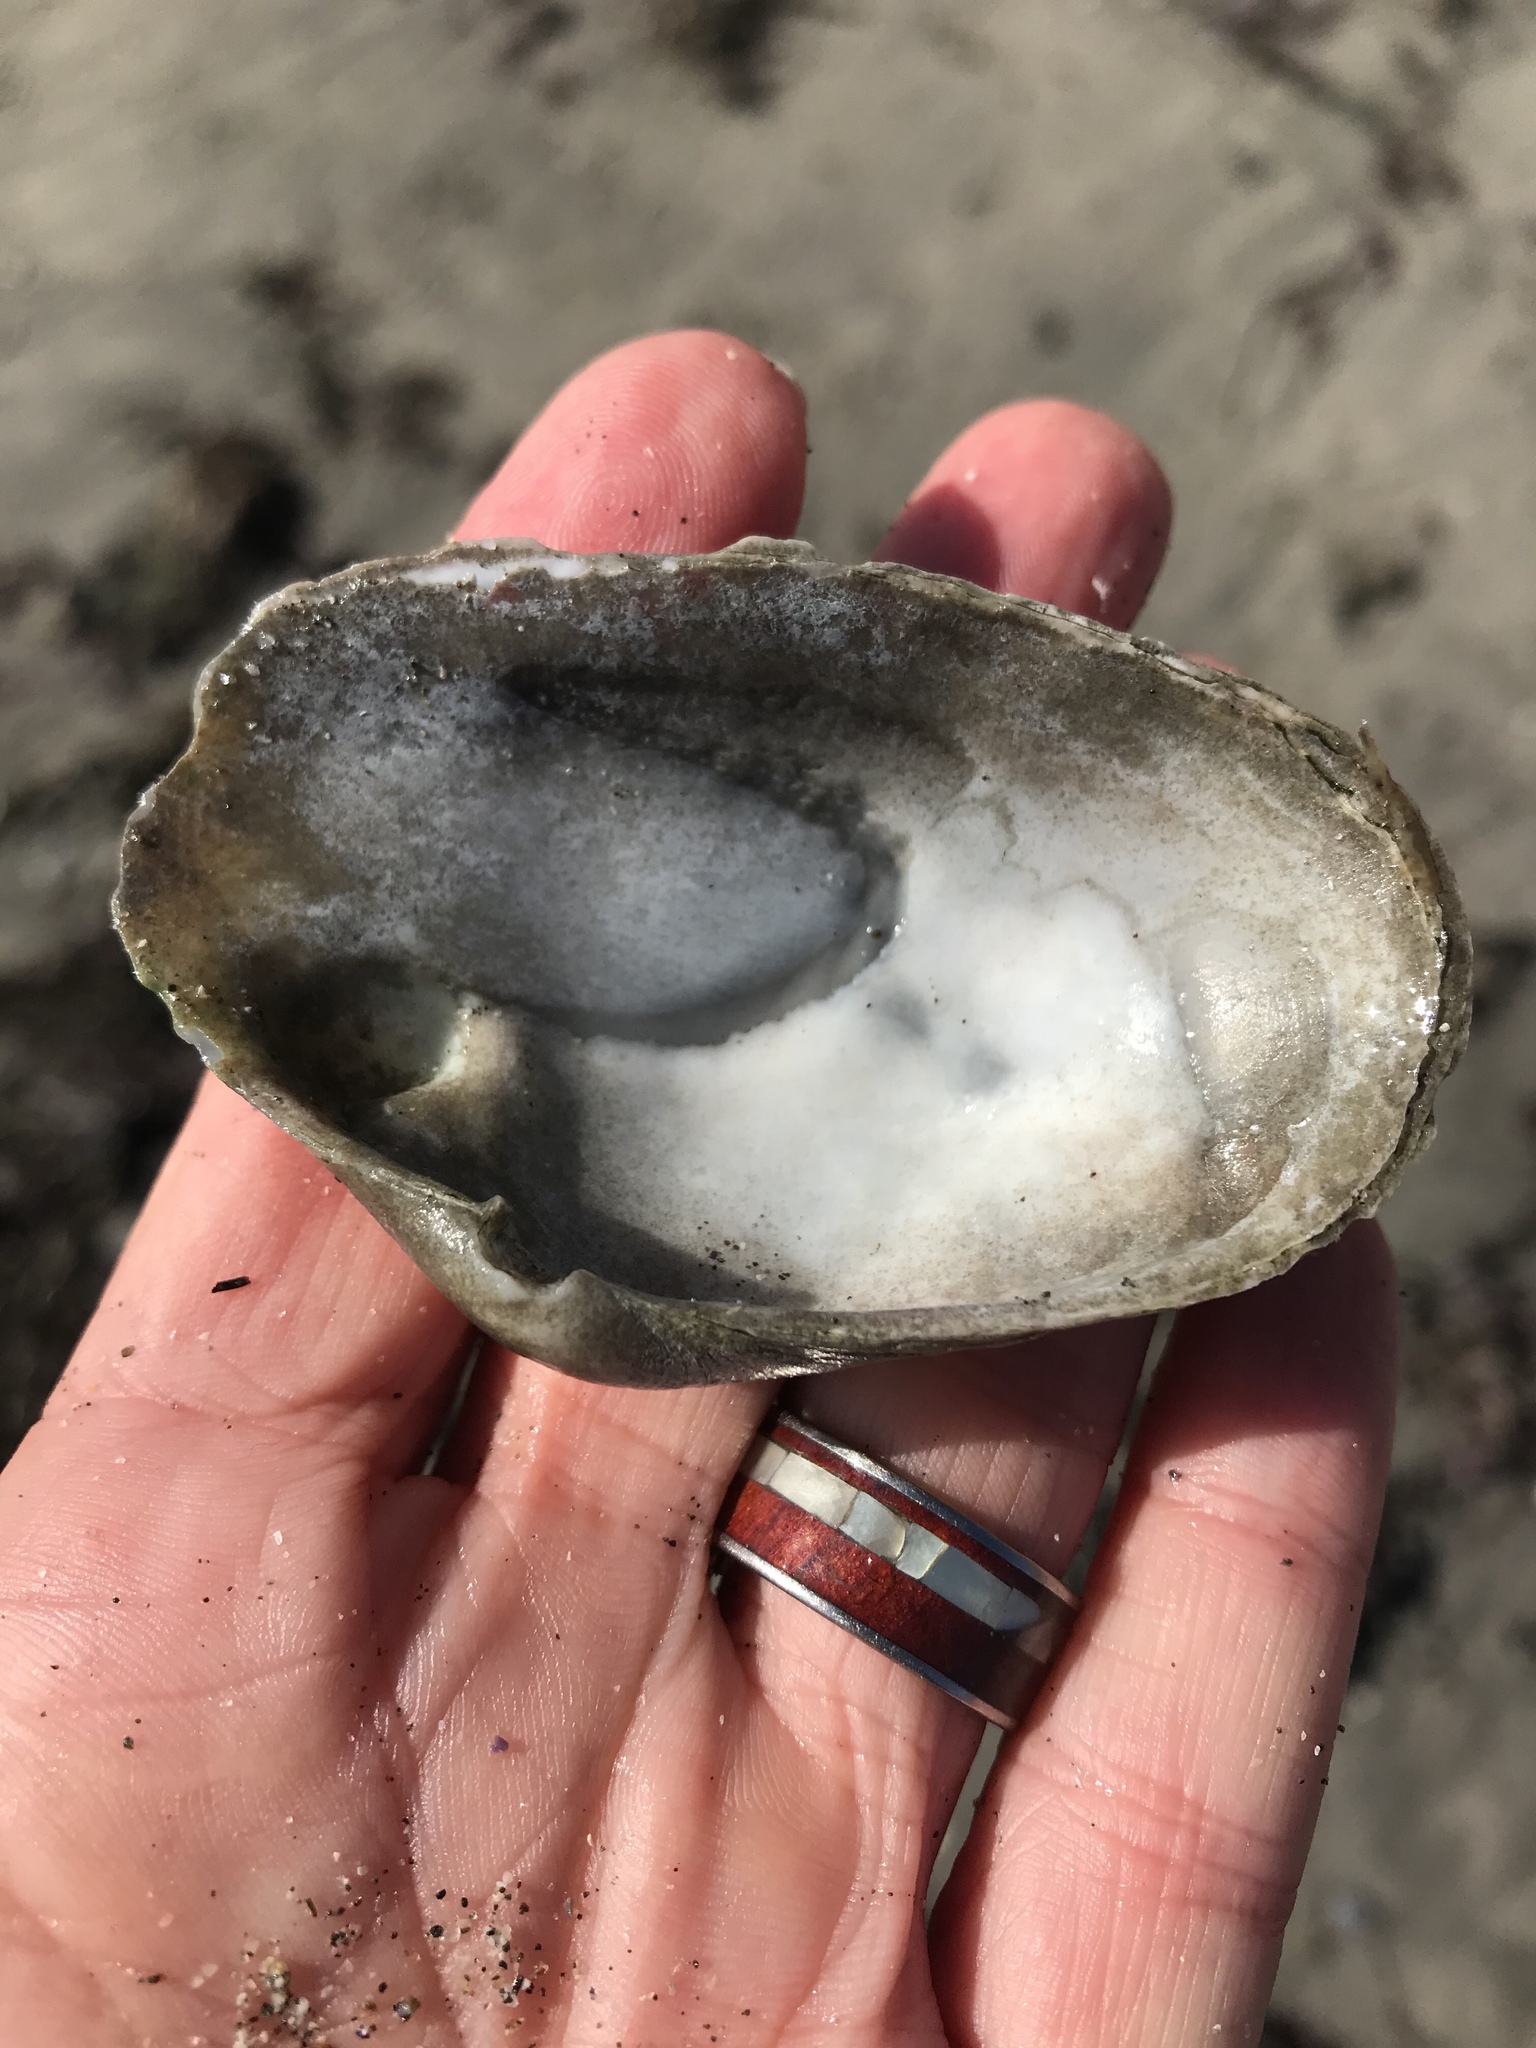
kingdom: Animalia
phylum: Mollusca
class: Bivalvia
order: Myida
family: Myidae
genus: Platyodon
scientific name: Platyodon cancellatus
